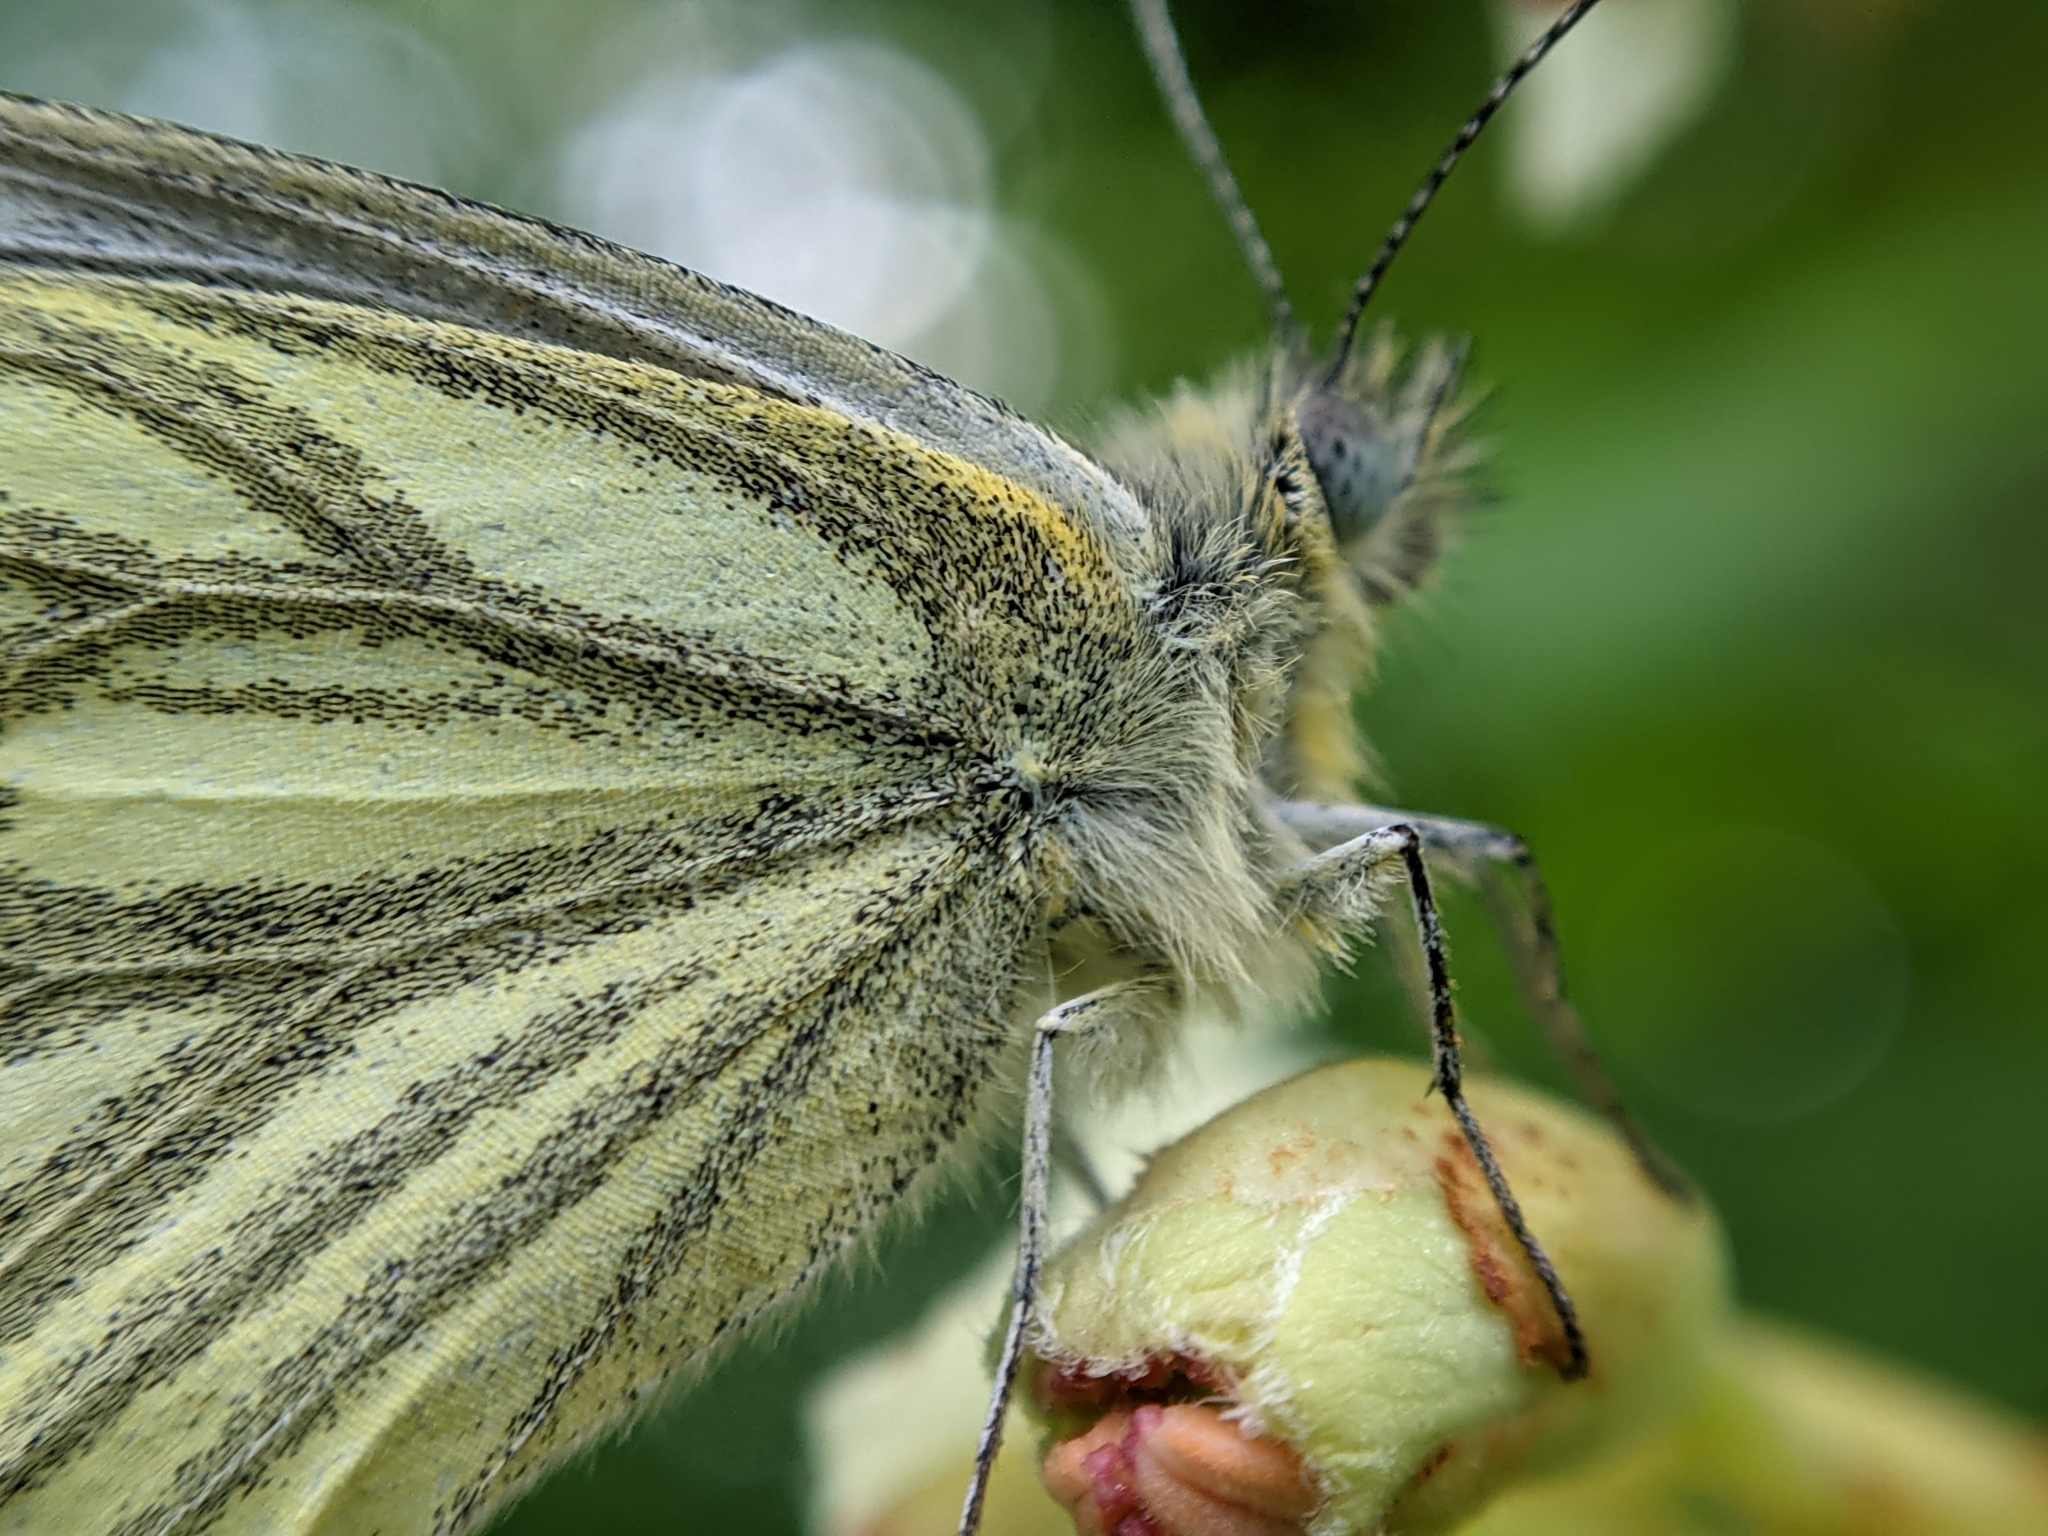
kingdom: Animalia
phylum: Arthropoda
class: Insecta
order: Lepidoptera
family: Pieridae
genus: Pieris
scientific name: Pieris napi
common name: Green-veined white
